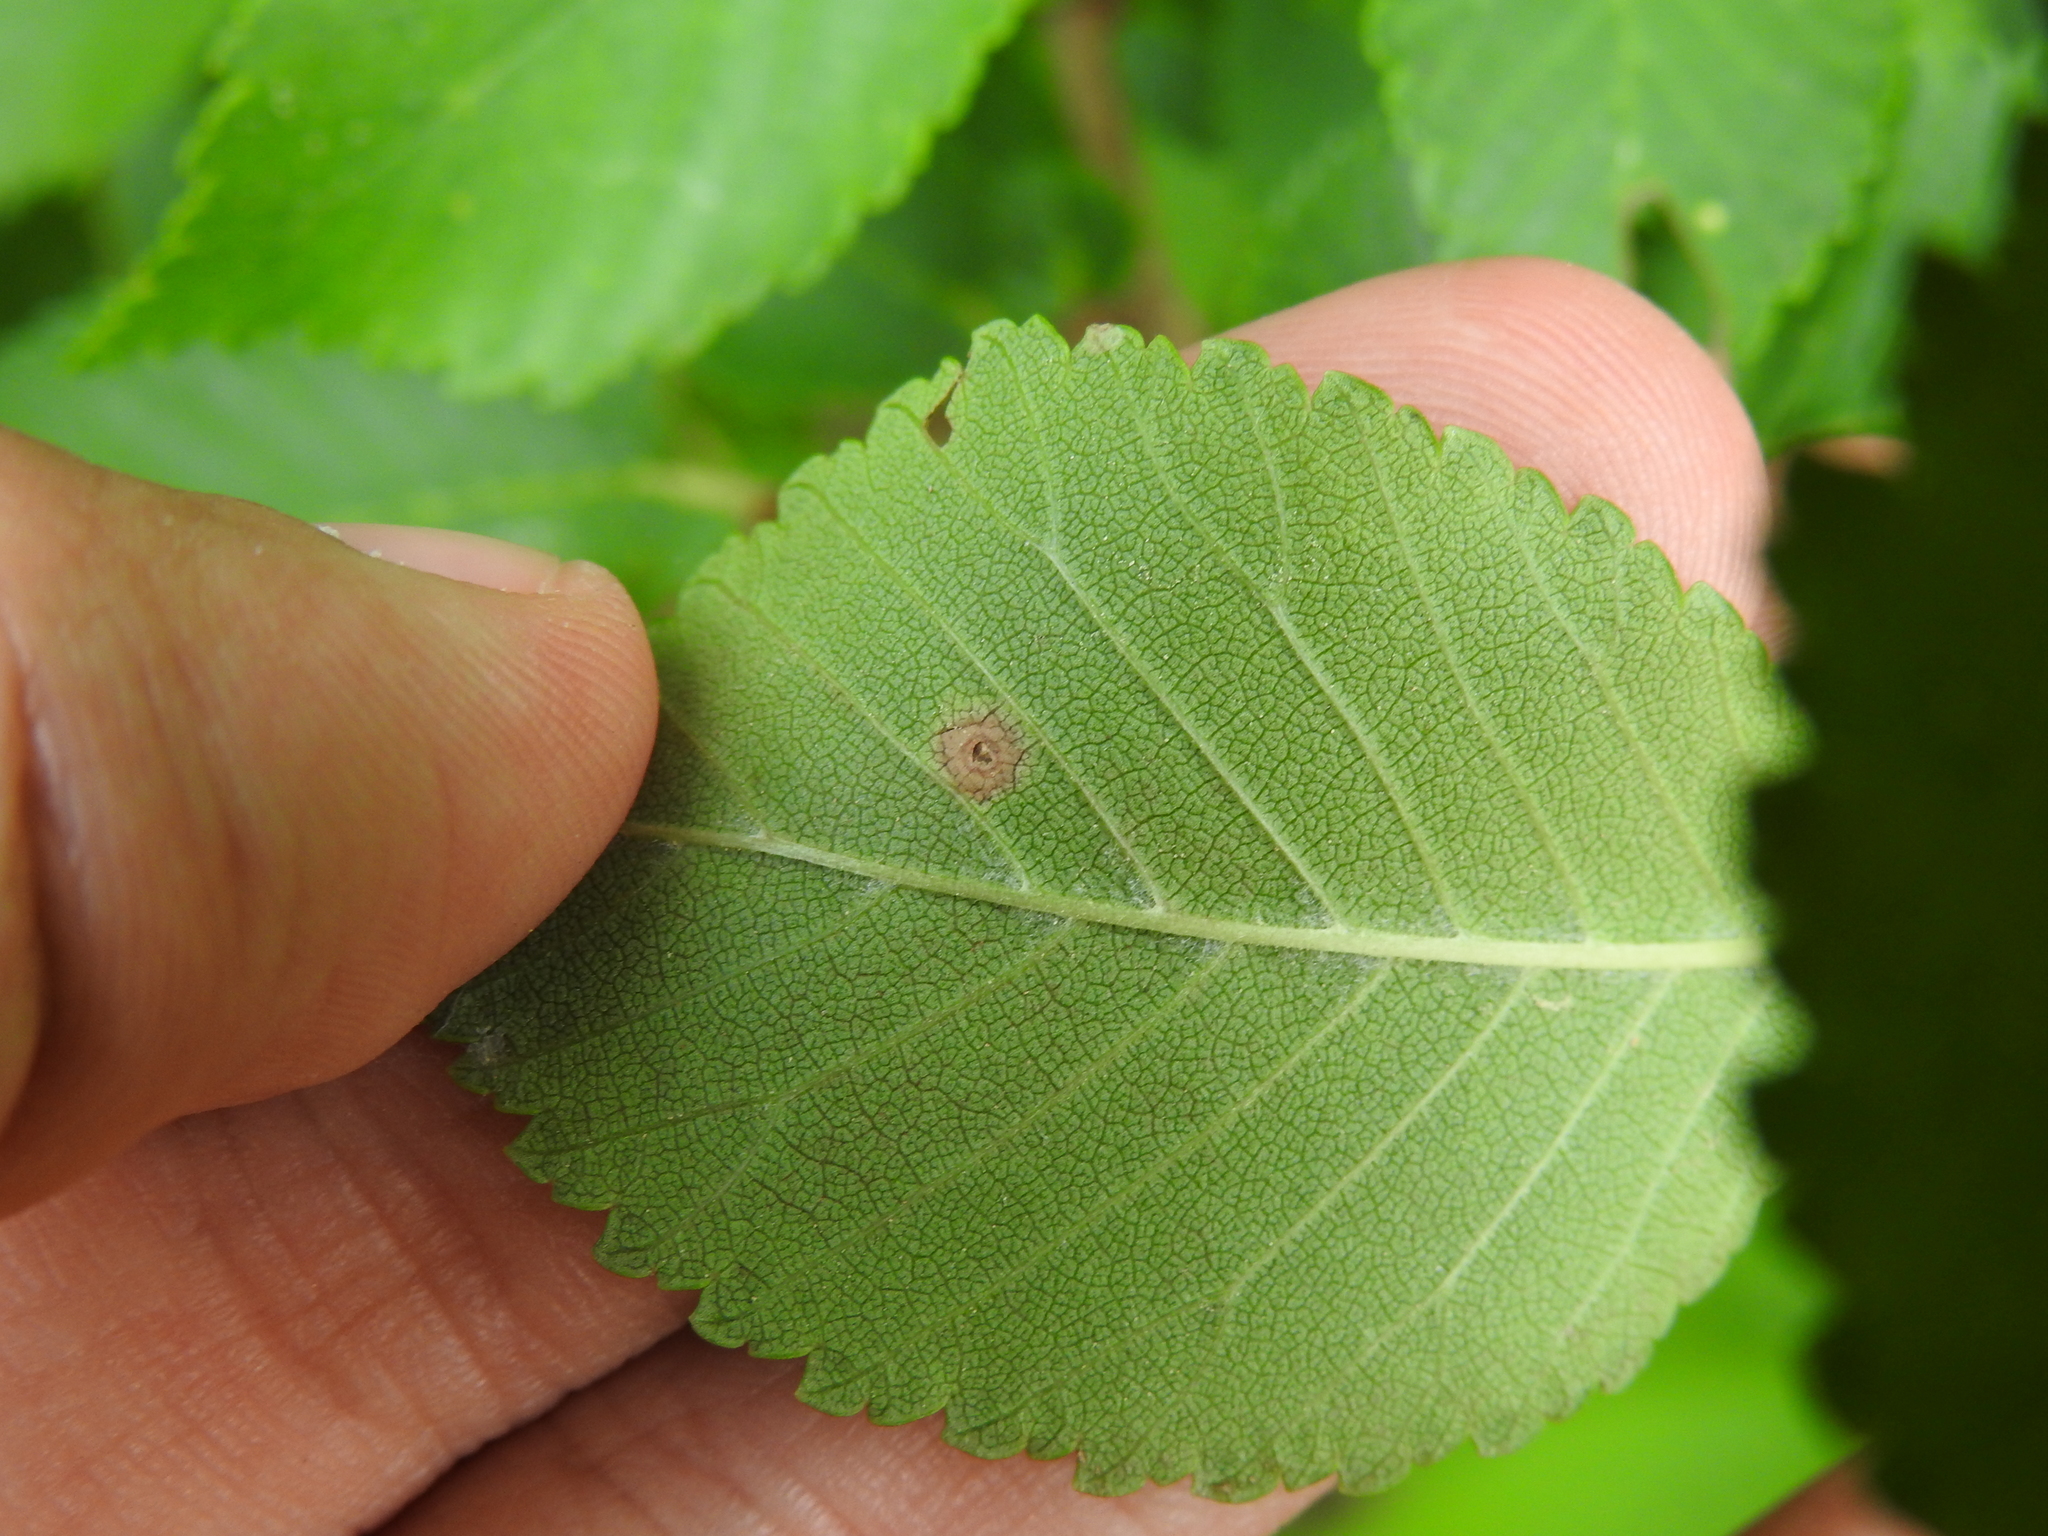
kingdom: Animalia
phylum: Arthropoda
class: Insecta
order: Diptera
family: Cecidomyiidae
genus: Physemocecis
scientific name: Physemocecis ulmi
